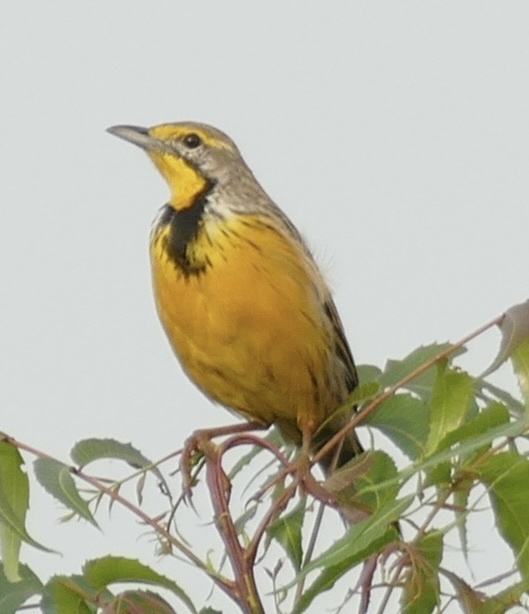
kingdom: Animalia
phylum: Chordata
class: Aves
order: Passeriformes
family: Motacillidae
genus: Macronyx
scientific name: Macronyx croceus
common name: Yellow-throated longclaw
